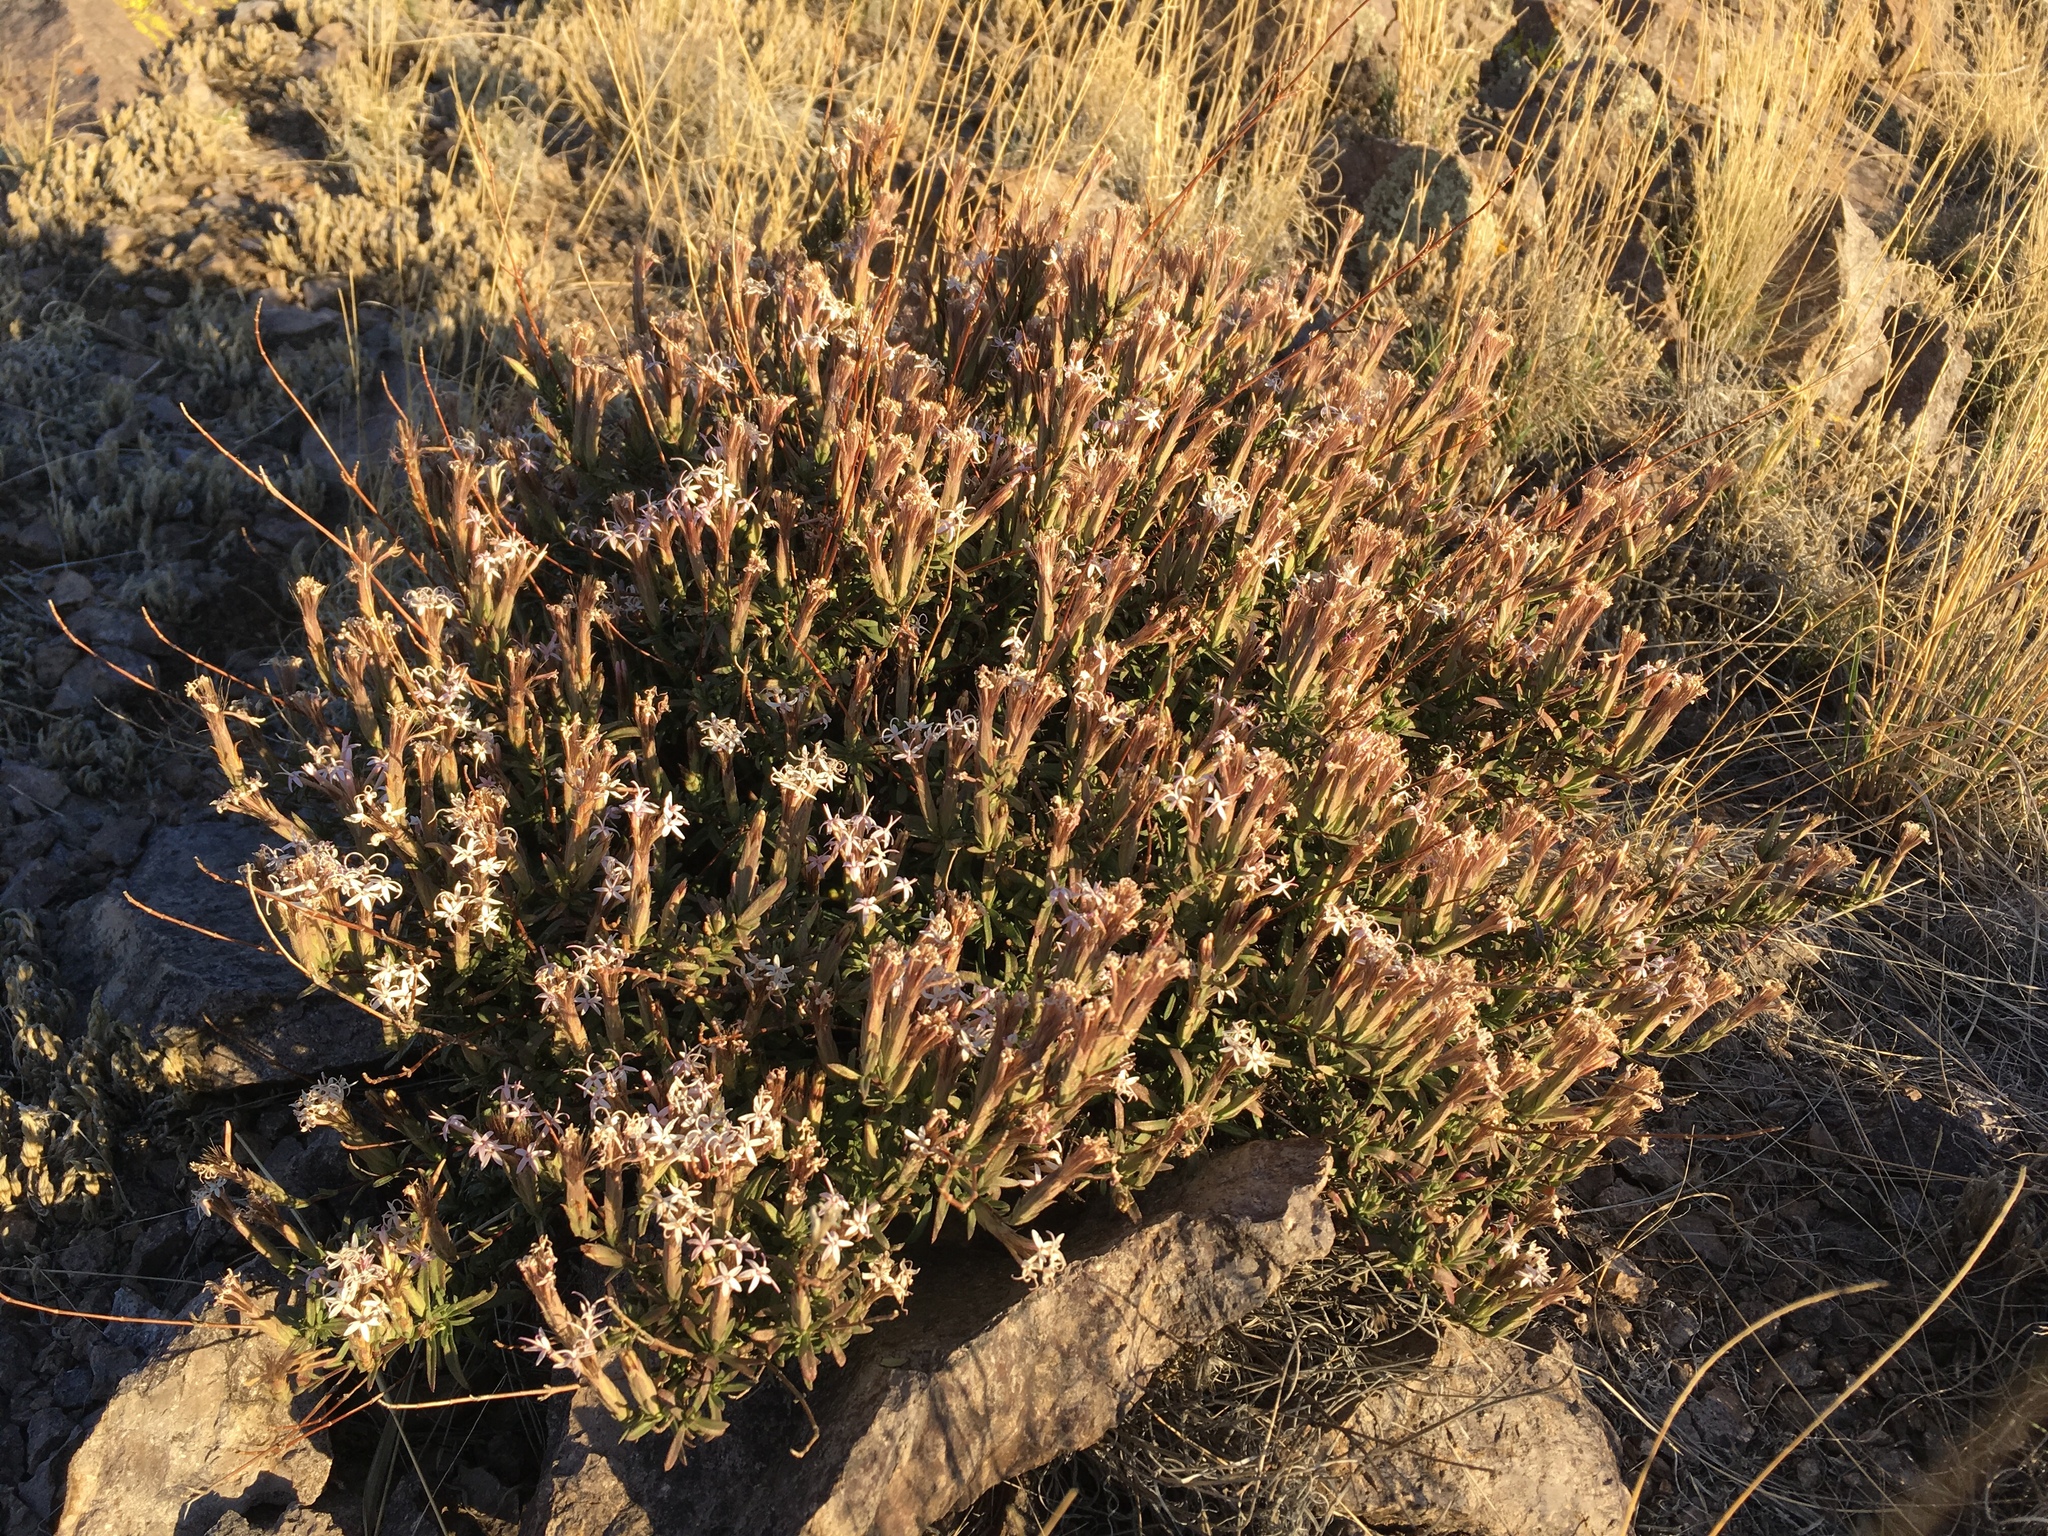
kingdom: Plantae
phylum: Tracheophyta
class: Magnoliopsida
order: Asterales
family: Asteraceae
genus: Carphochaete
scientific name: Carphochaete bigelovii
